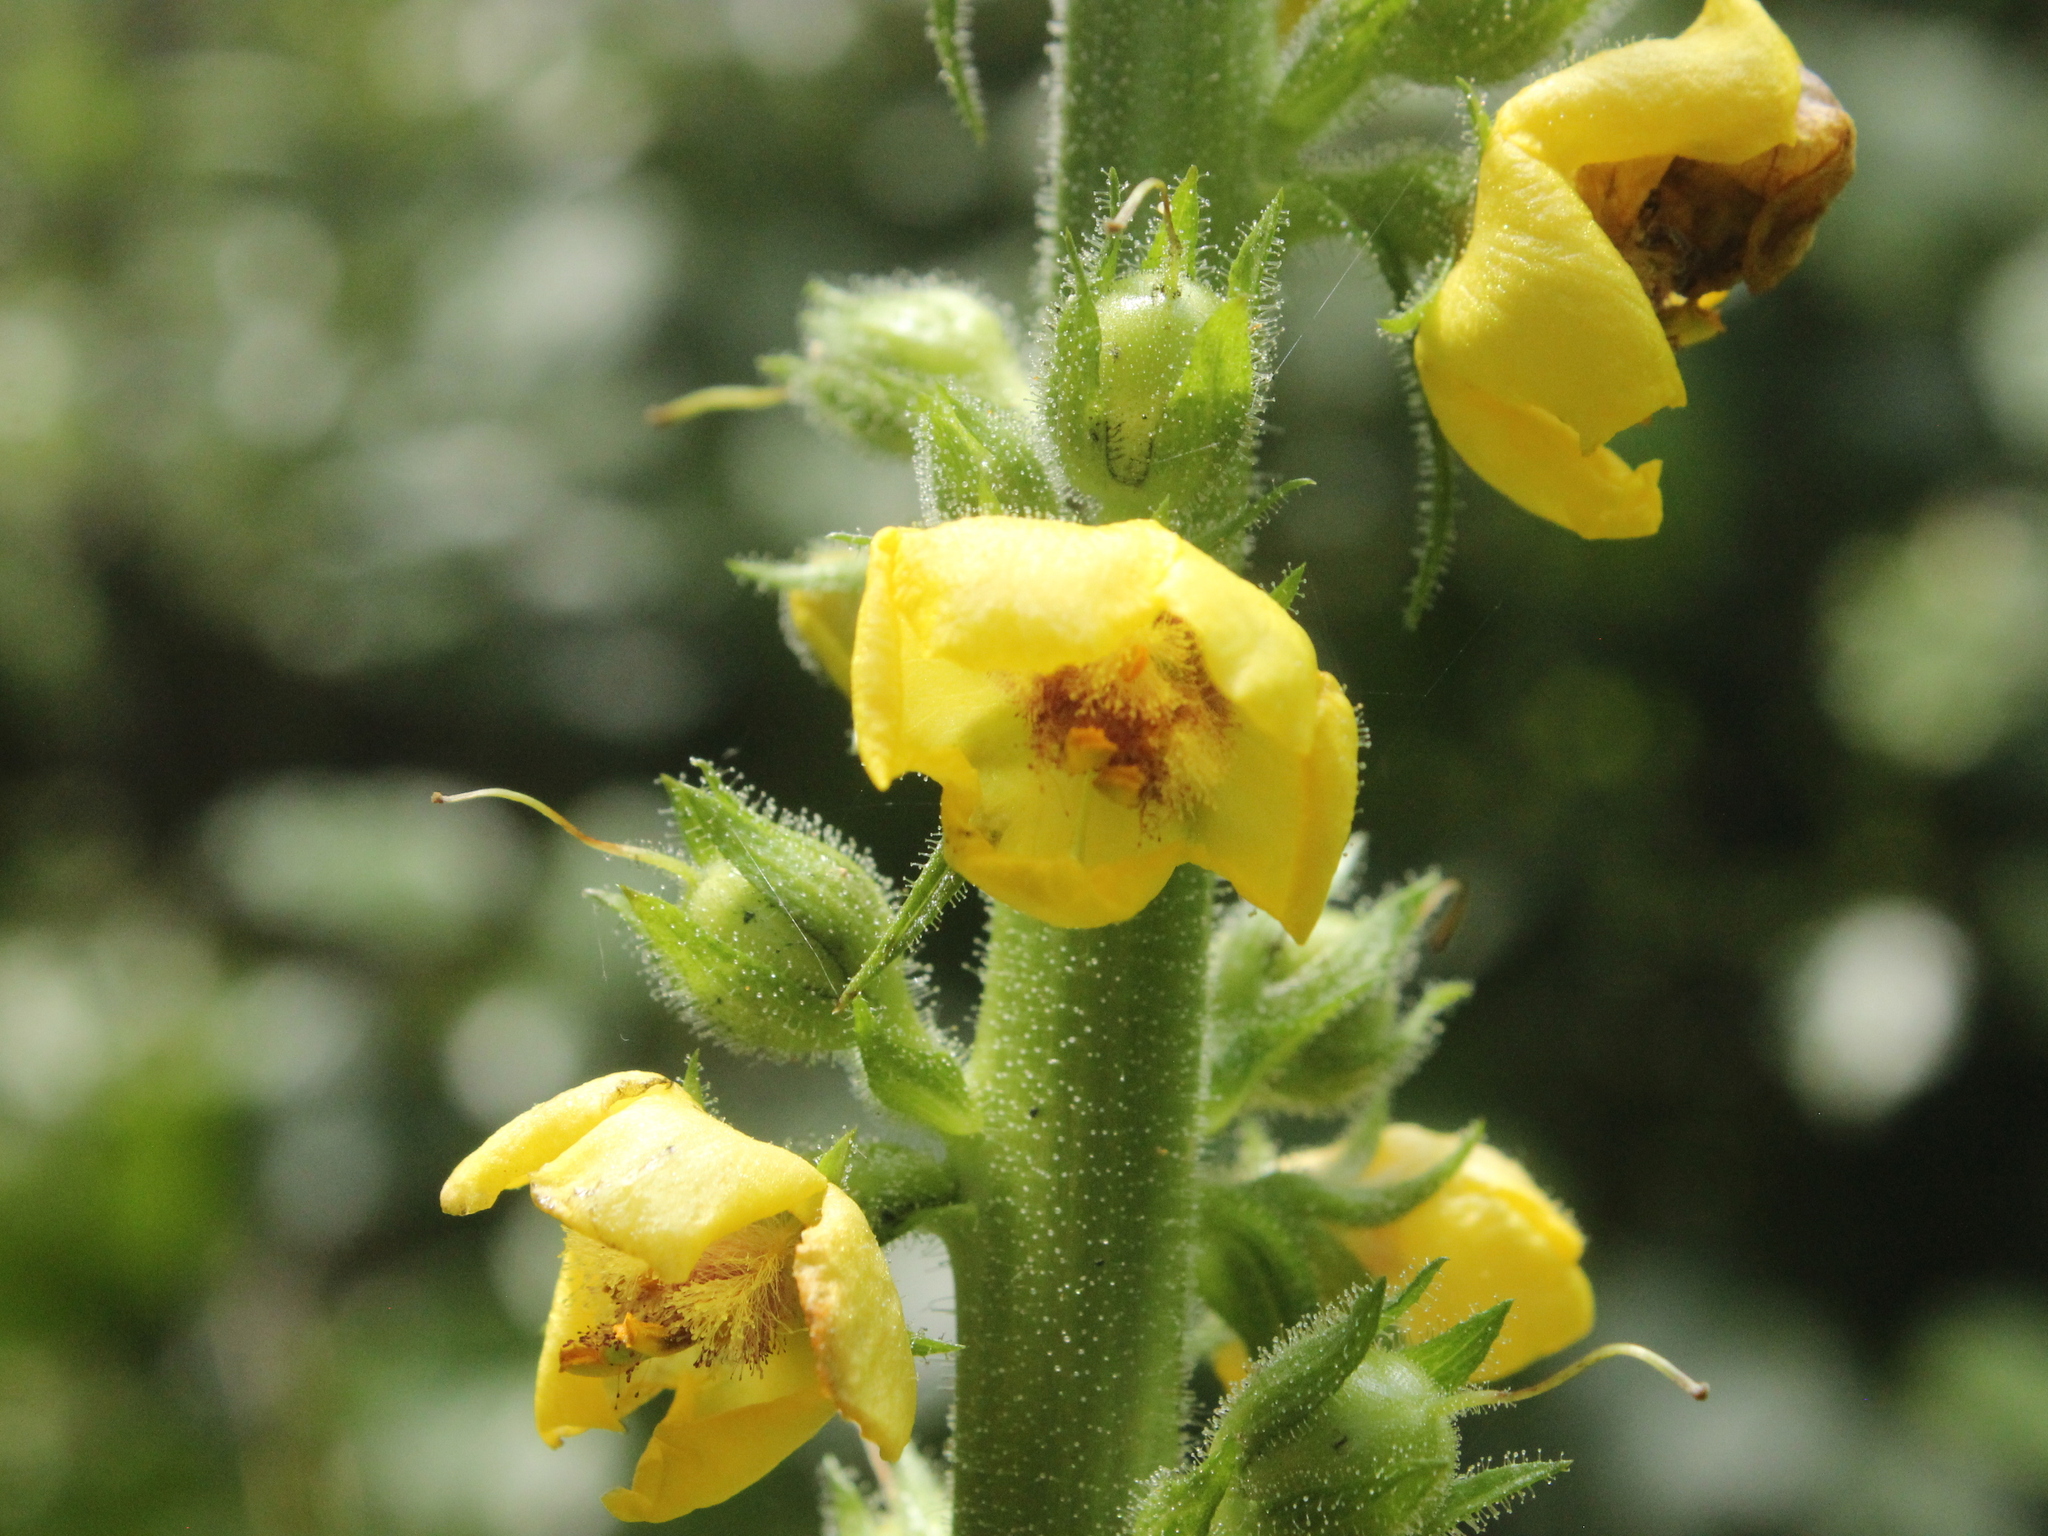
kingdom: Plantae
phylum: Tracheophyta
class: Magnoliopsida
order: Lamiales
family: Scrophulariaceae
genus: Verbascum
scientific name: Verbascum virgatum
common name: Twiggy mullein
